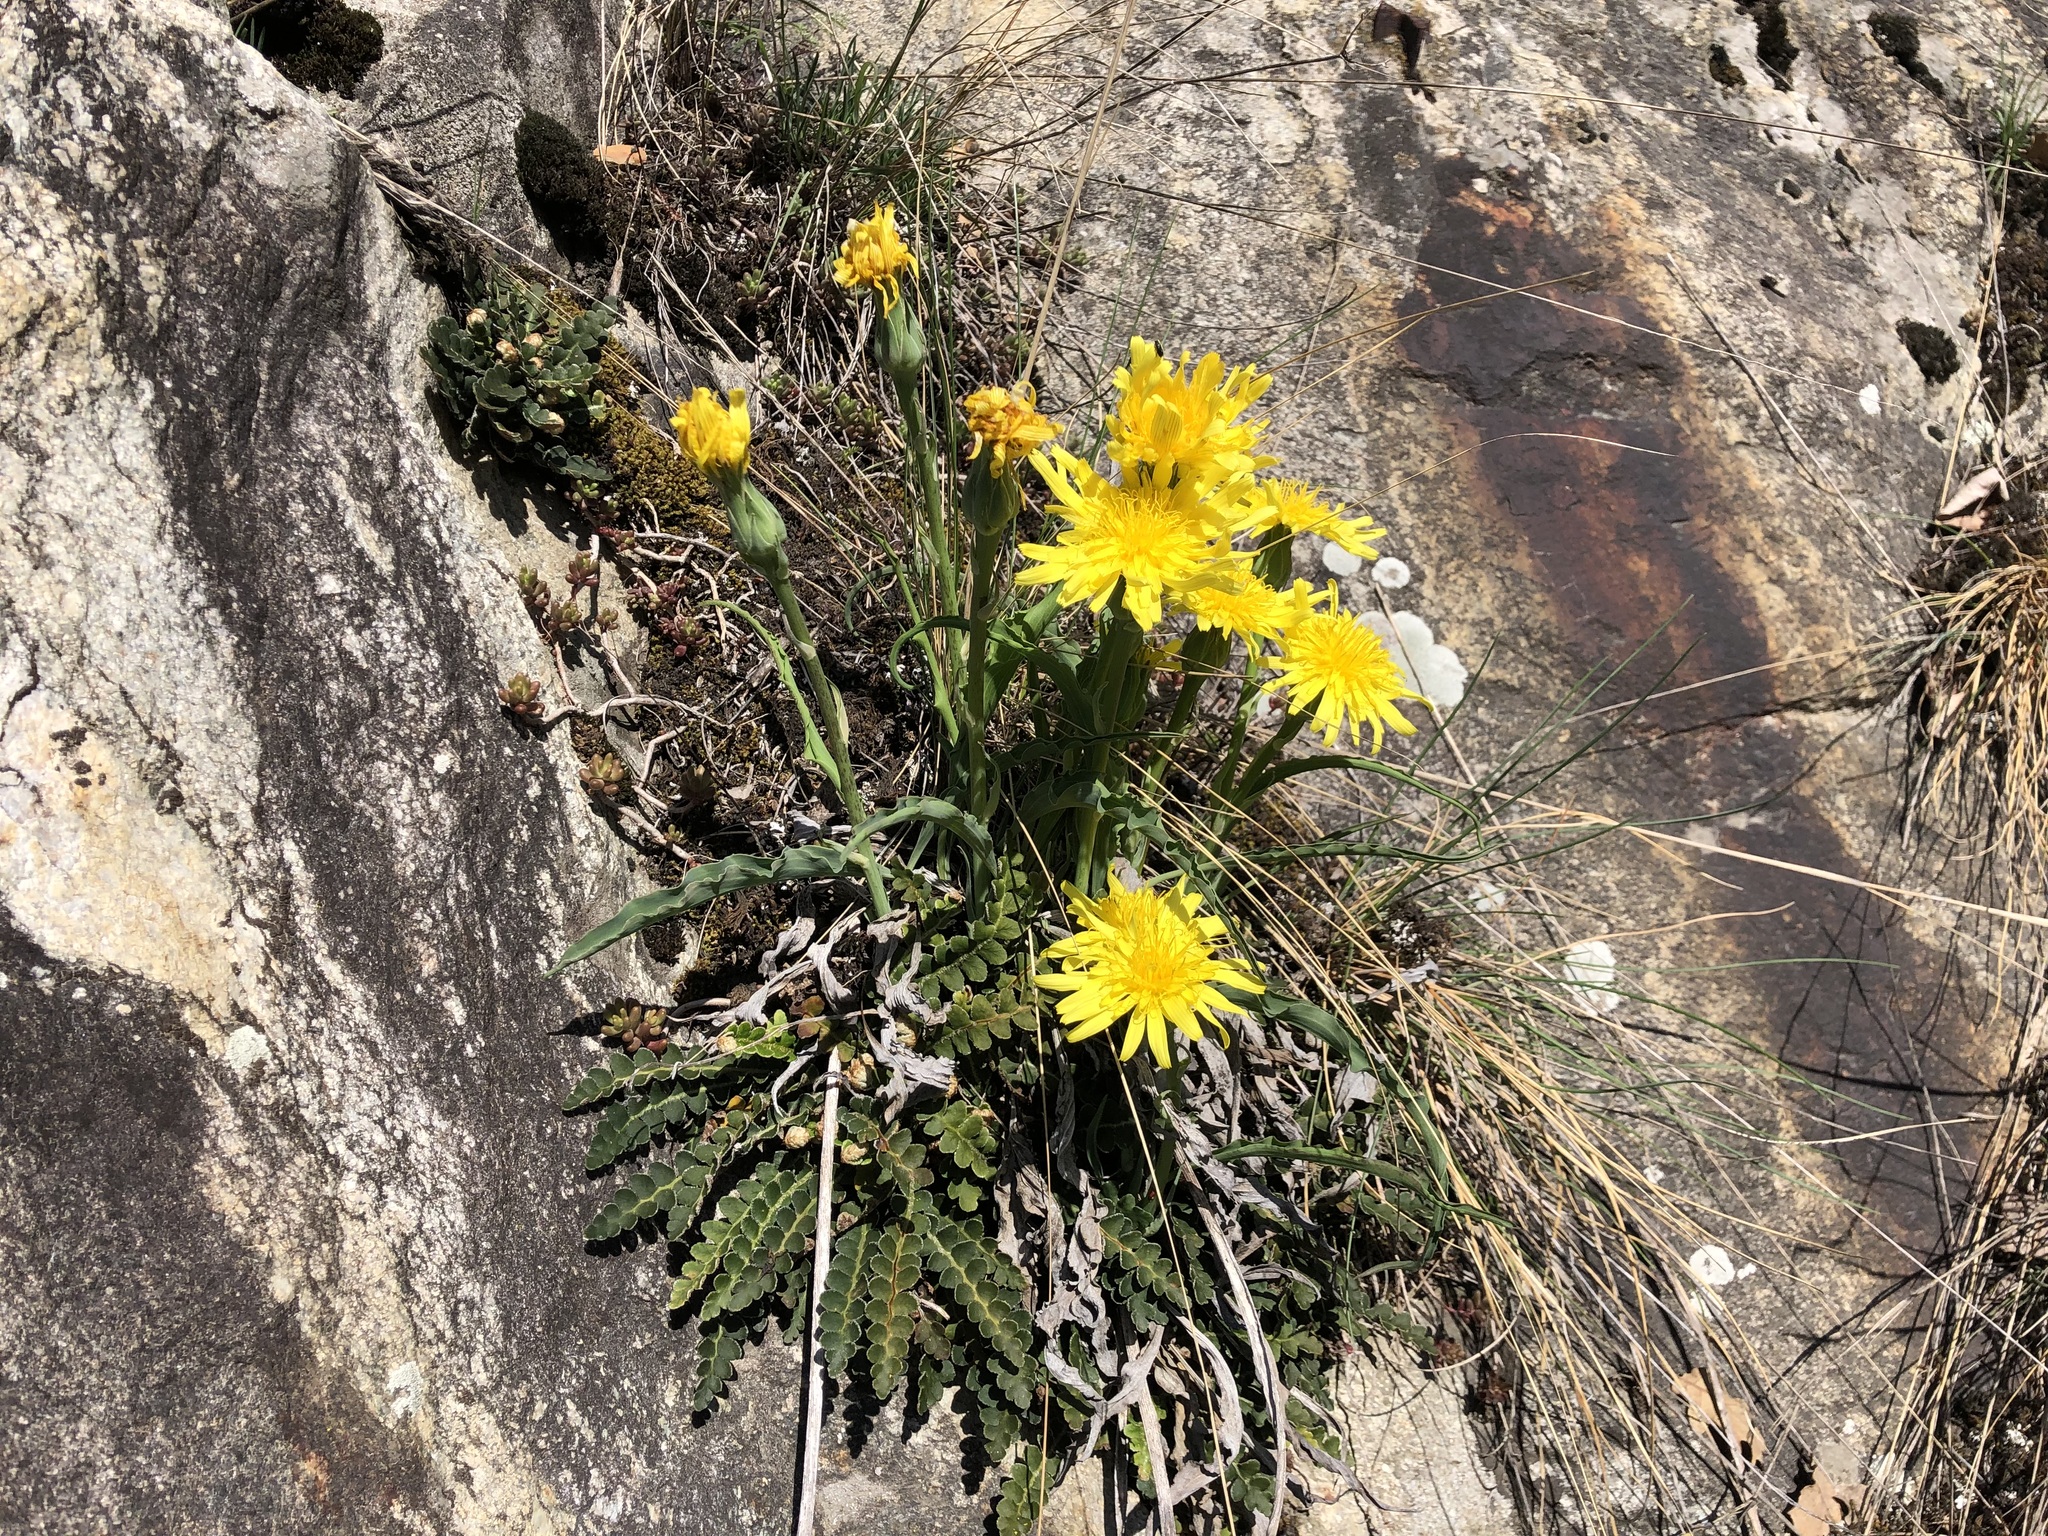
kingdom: Plantae
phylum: Tracheophyta
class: Magnoliopsida
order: Asterales
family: Asteraceae
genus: Takhtajaniantha
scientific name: Takhtajaniantha austriaca
